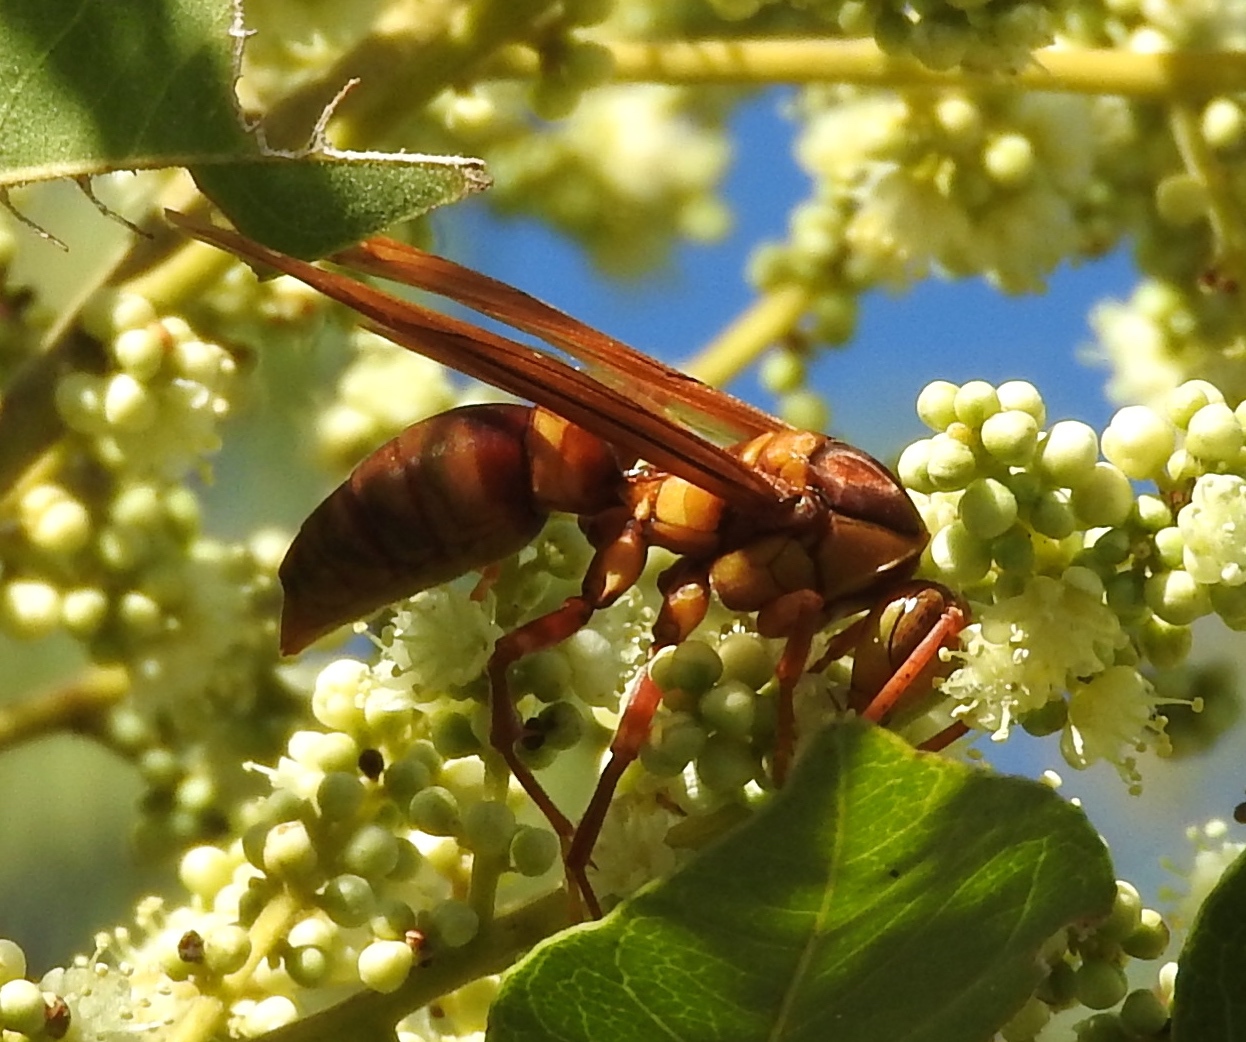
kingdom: Animalia
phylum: Arthropoda
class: Insecta
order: Hymenoptera
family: Eumenidae
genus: Polistes
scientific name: Polistes carnifex
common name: Paper wasp
